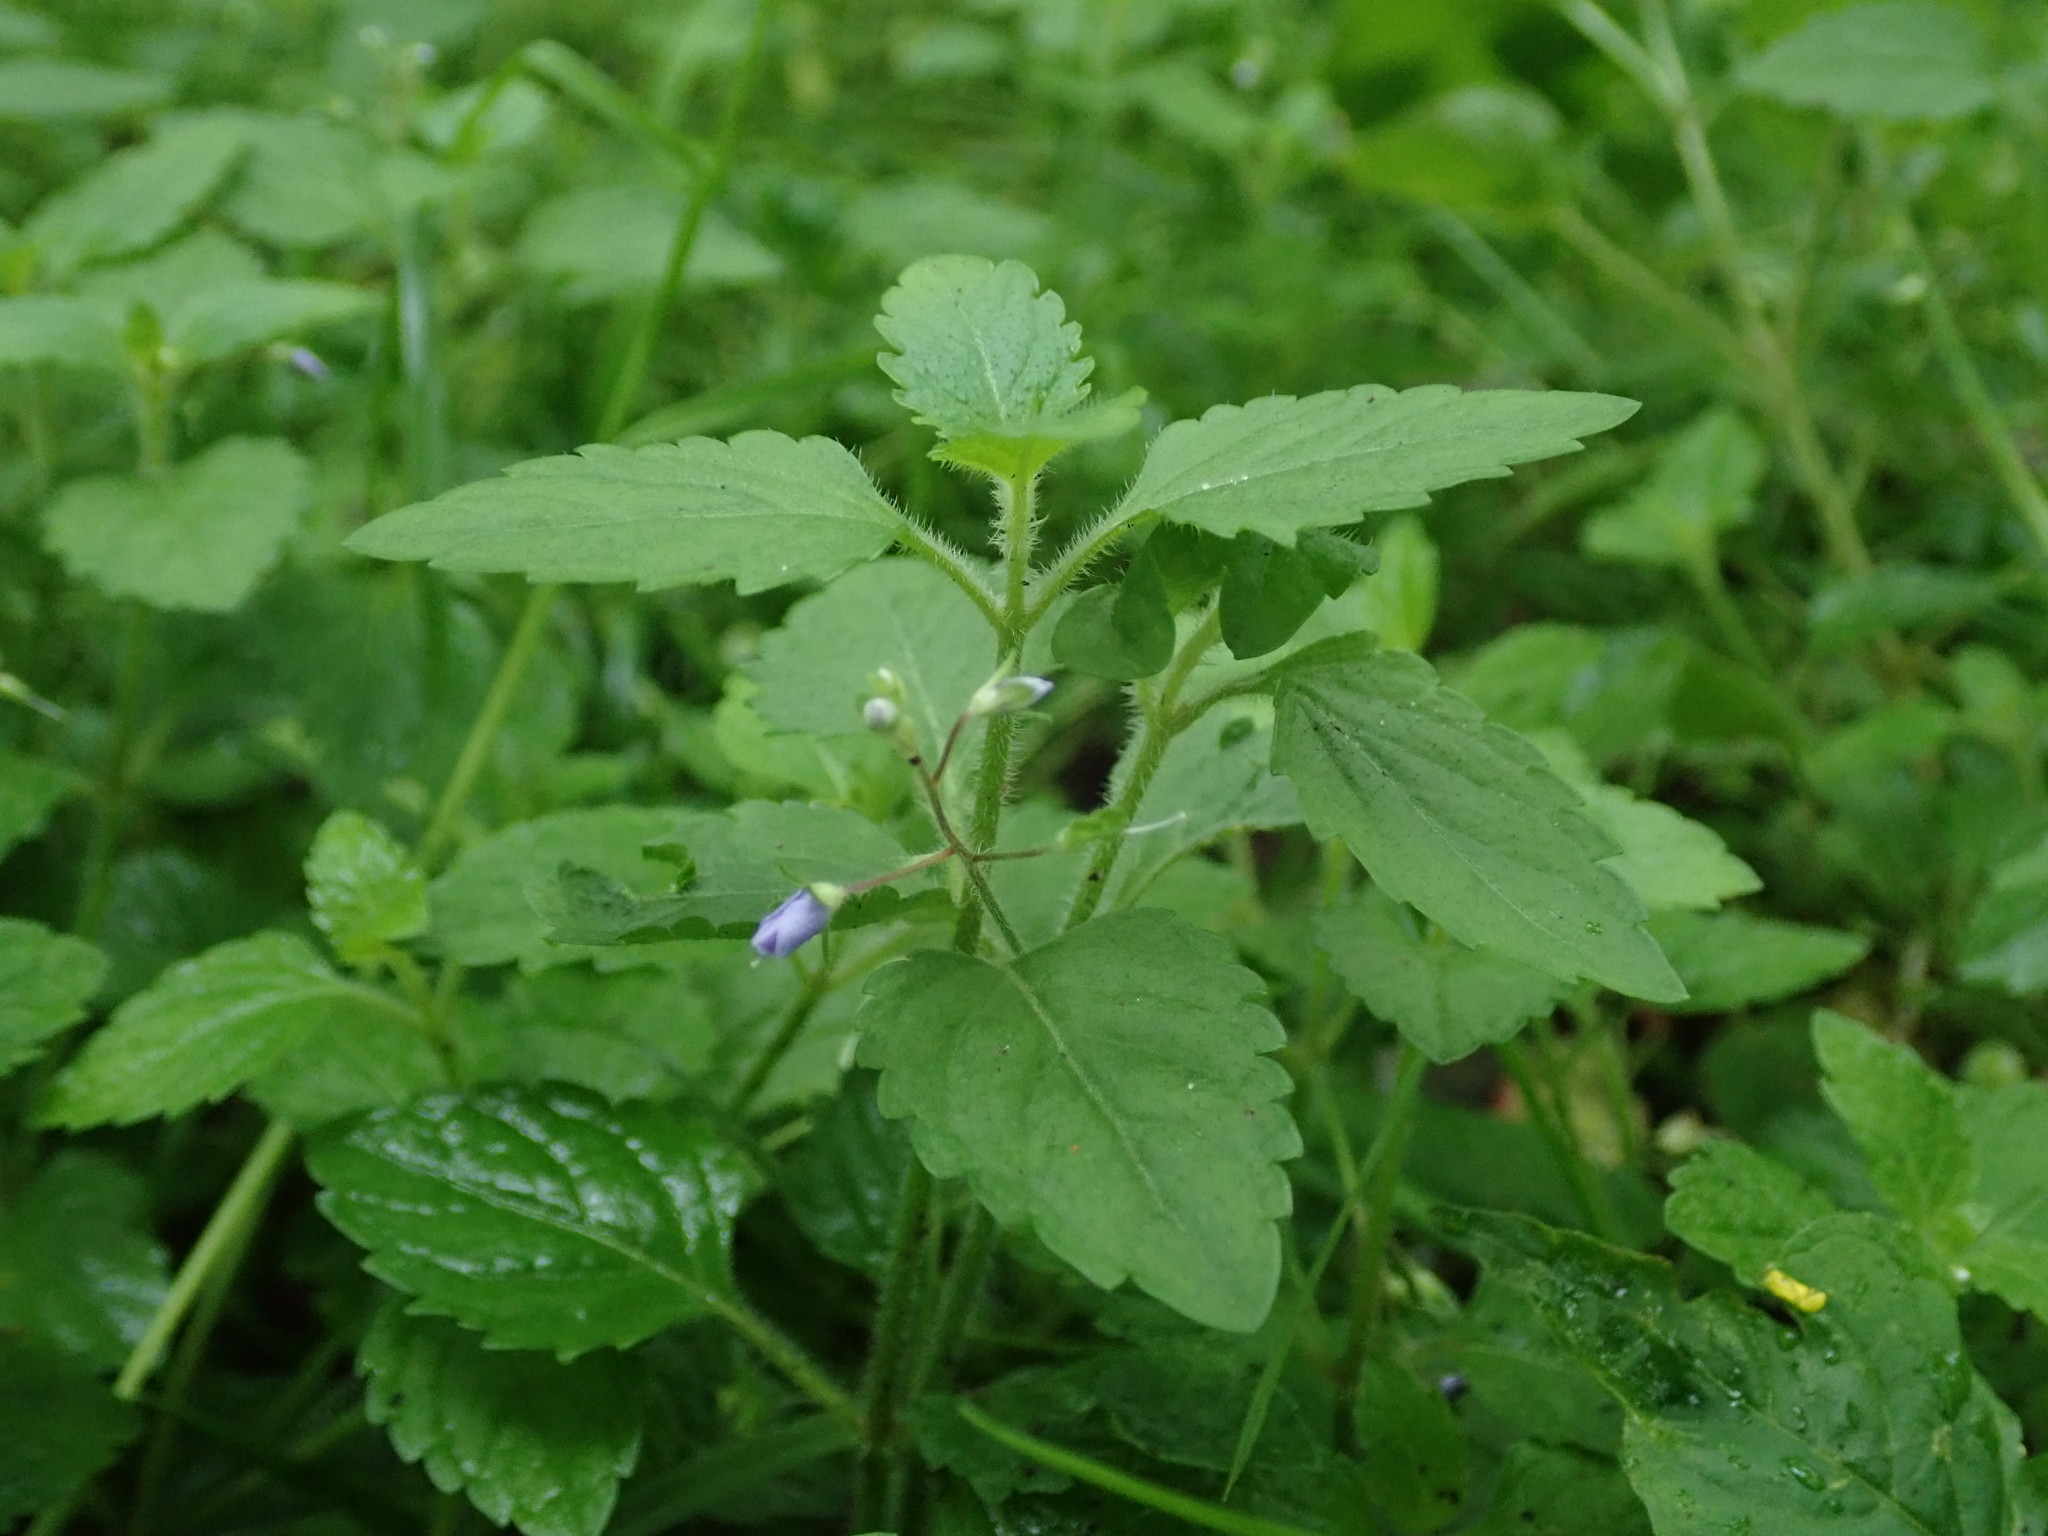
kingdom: Plantae
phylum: Tracheophyta
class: Magnoliopsida
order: Lamiales
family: Plantaginaceae
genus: Veronica
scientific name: Veronica montana
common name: Wood speedwell
